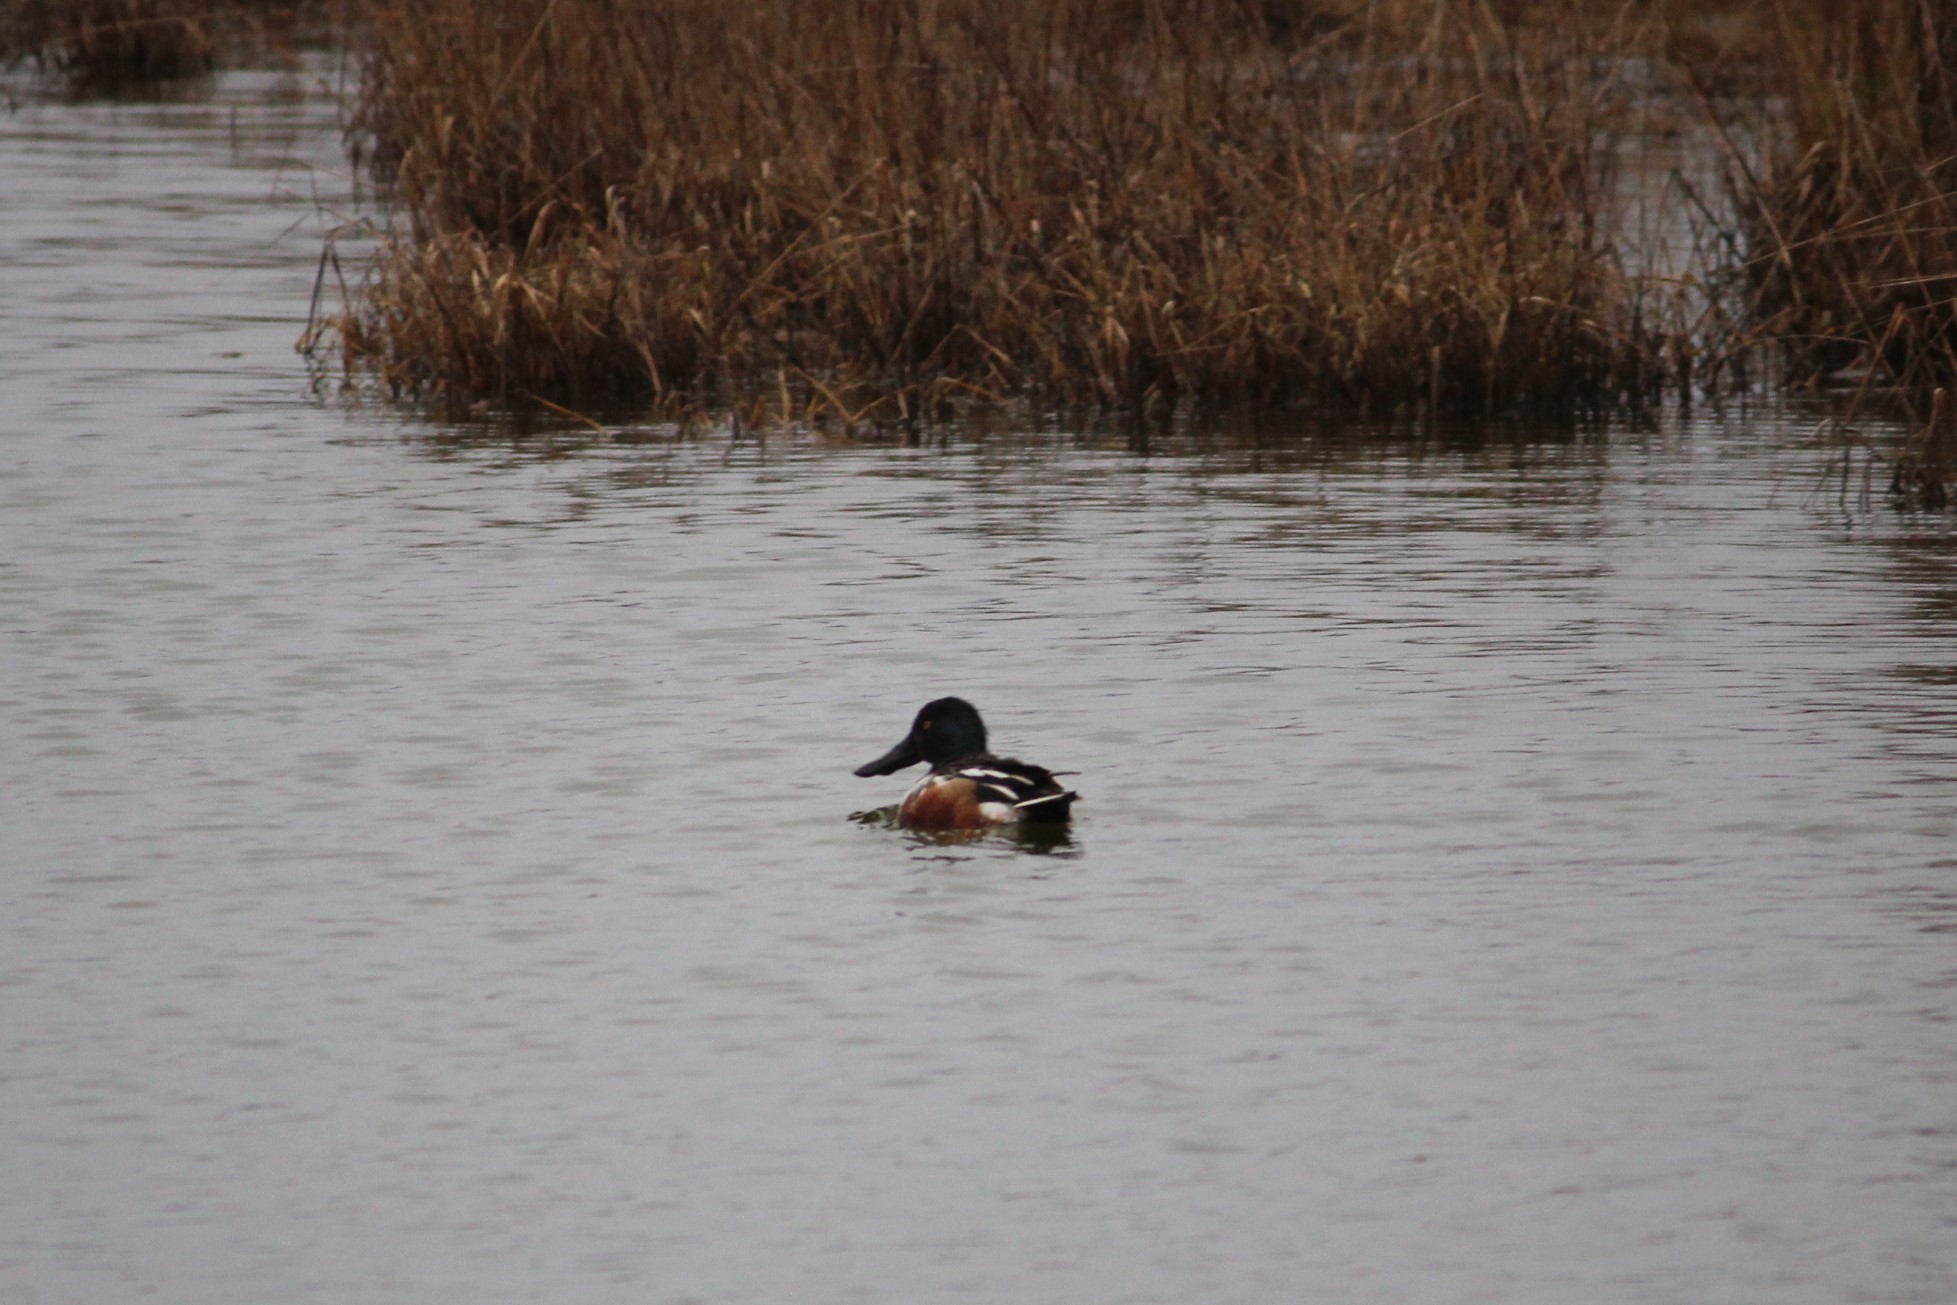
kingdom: Animalia
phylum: Chordata
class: Aves
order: Anseriformes
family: Anatidae
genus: Spatula
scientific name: Spatula clypeata
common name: Northern shoveler
